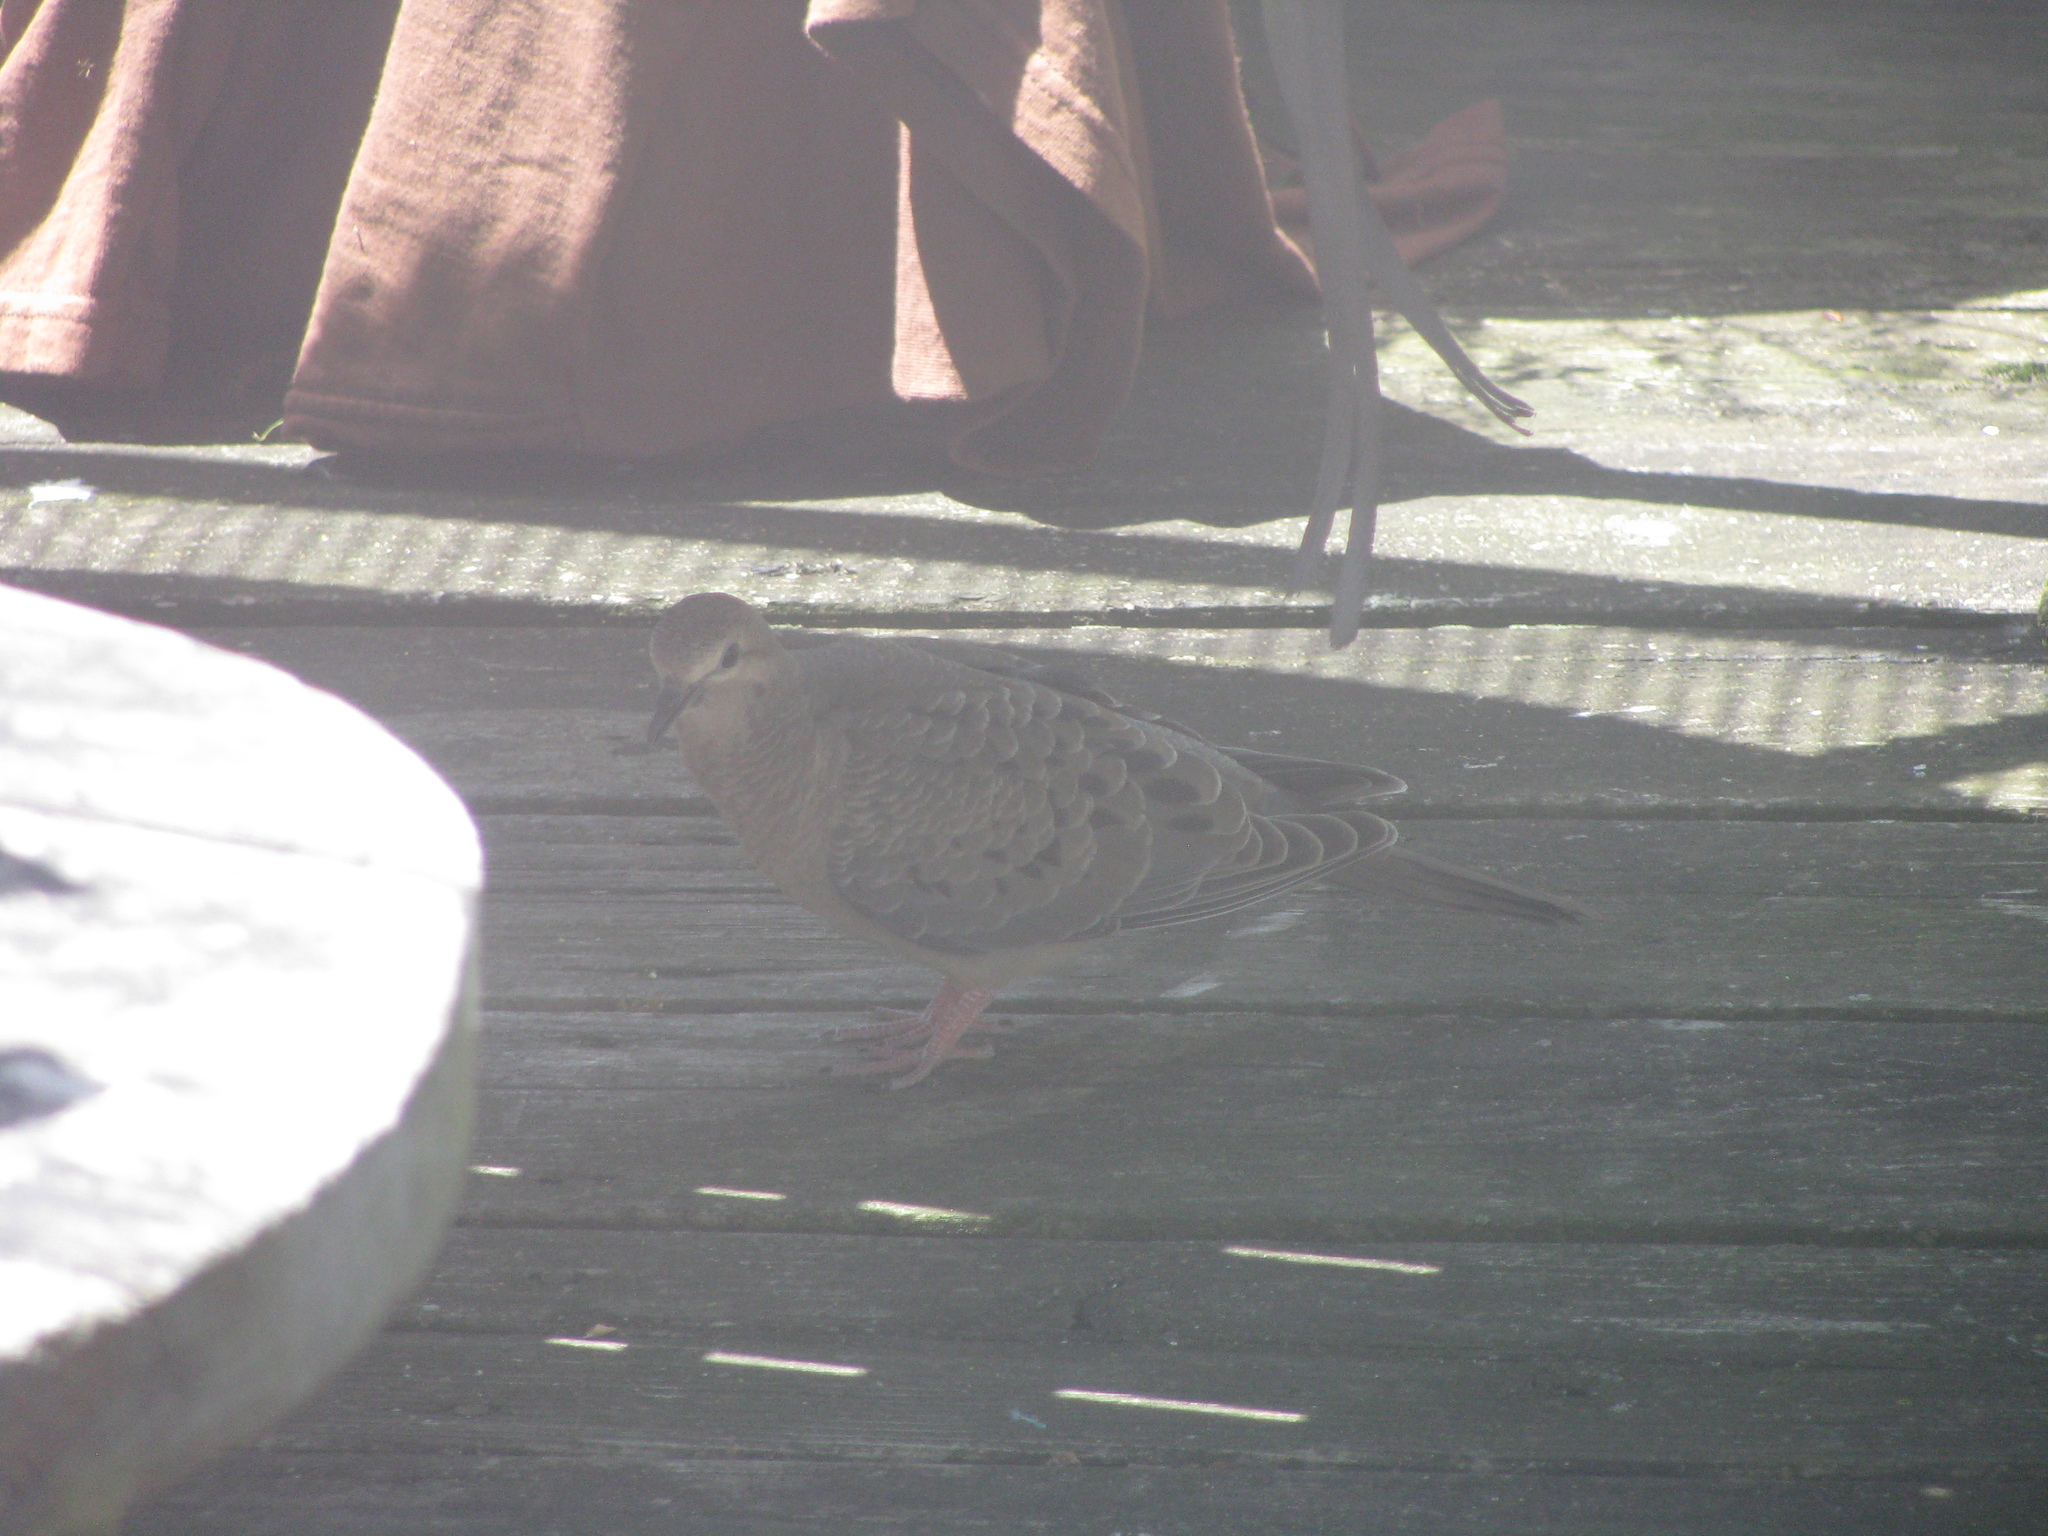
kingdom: Animalia
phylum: Chordata
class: Aves
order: Columbiformes
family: Columbidae
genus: Zenaida
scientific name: Zenaida macroura
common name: Mourning dove
